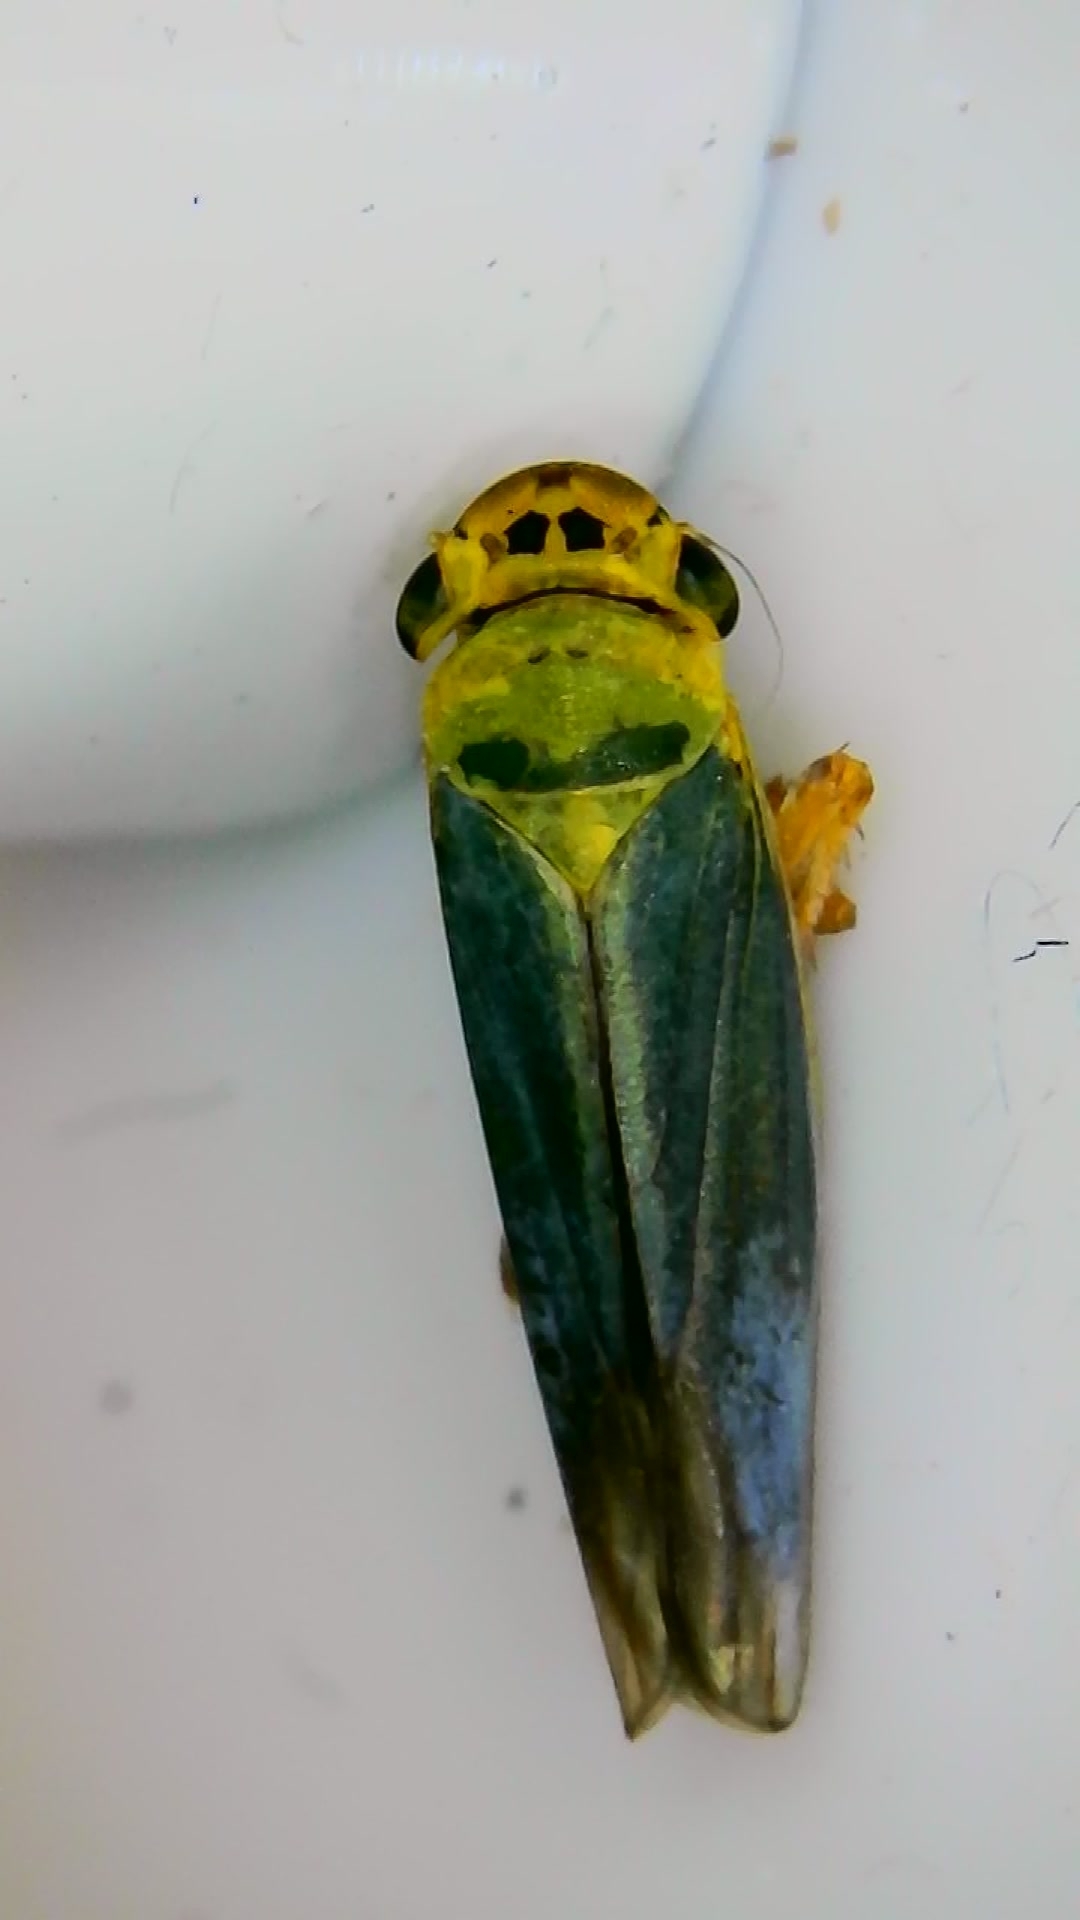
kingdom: Animalia
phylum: Arthropoda
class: Insecta
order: Hemiptera
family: Cicadellidae
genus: Cicadella
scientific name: Cicadella viridis
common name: Leafhopper
